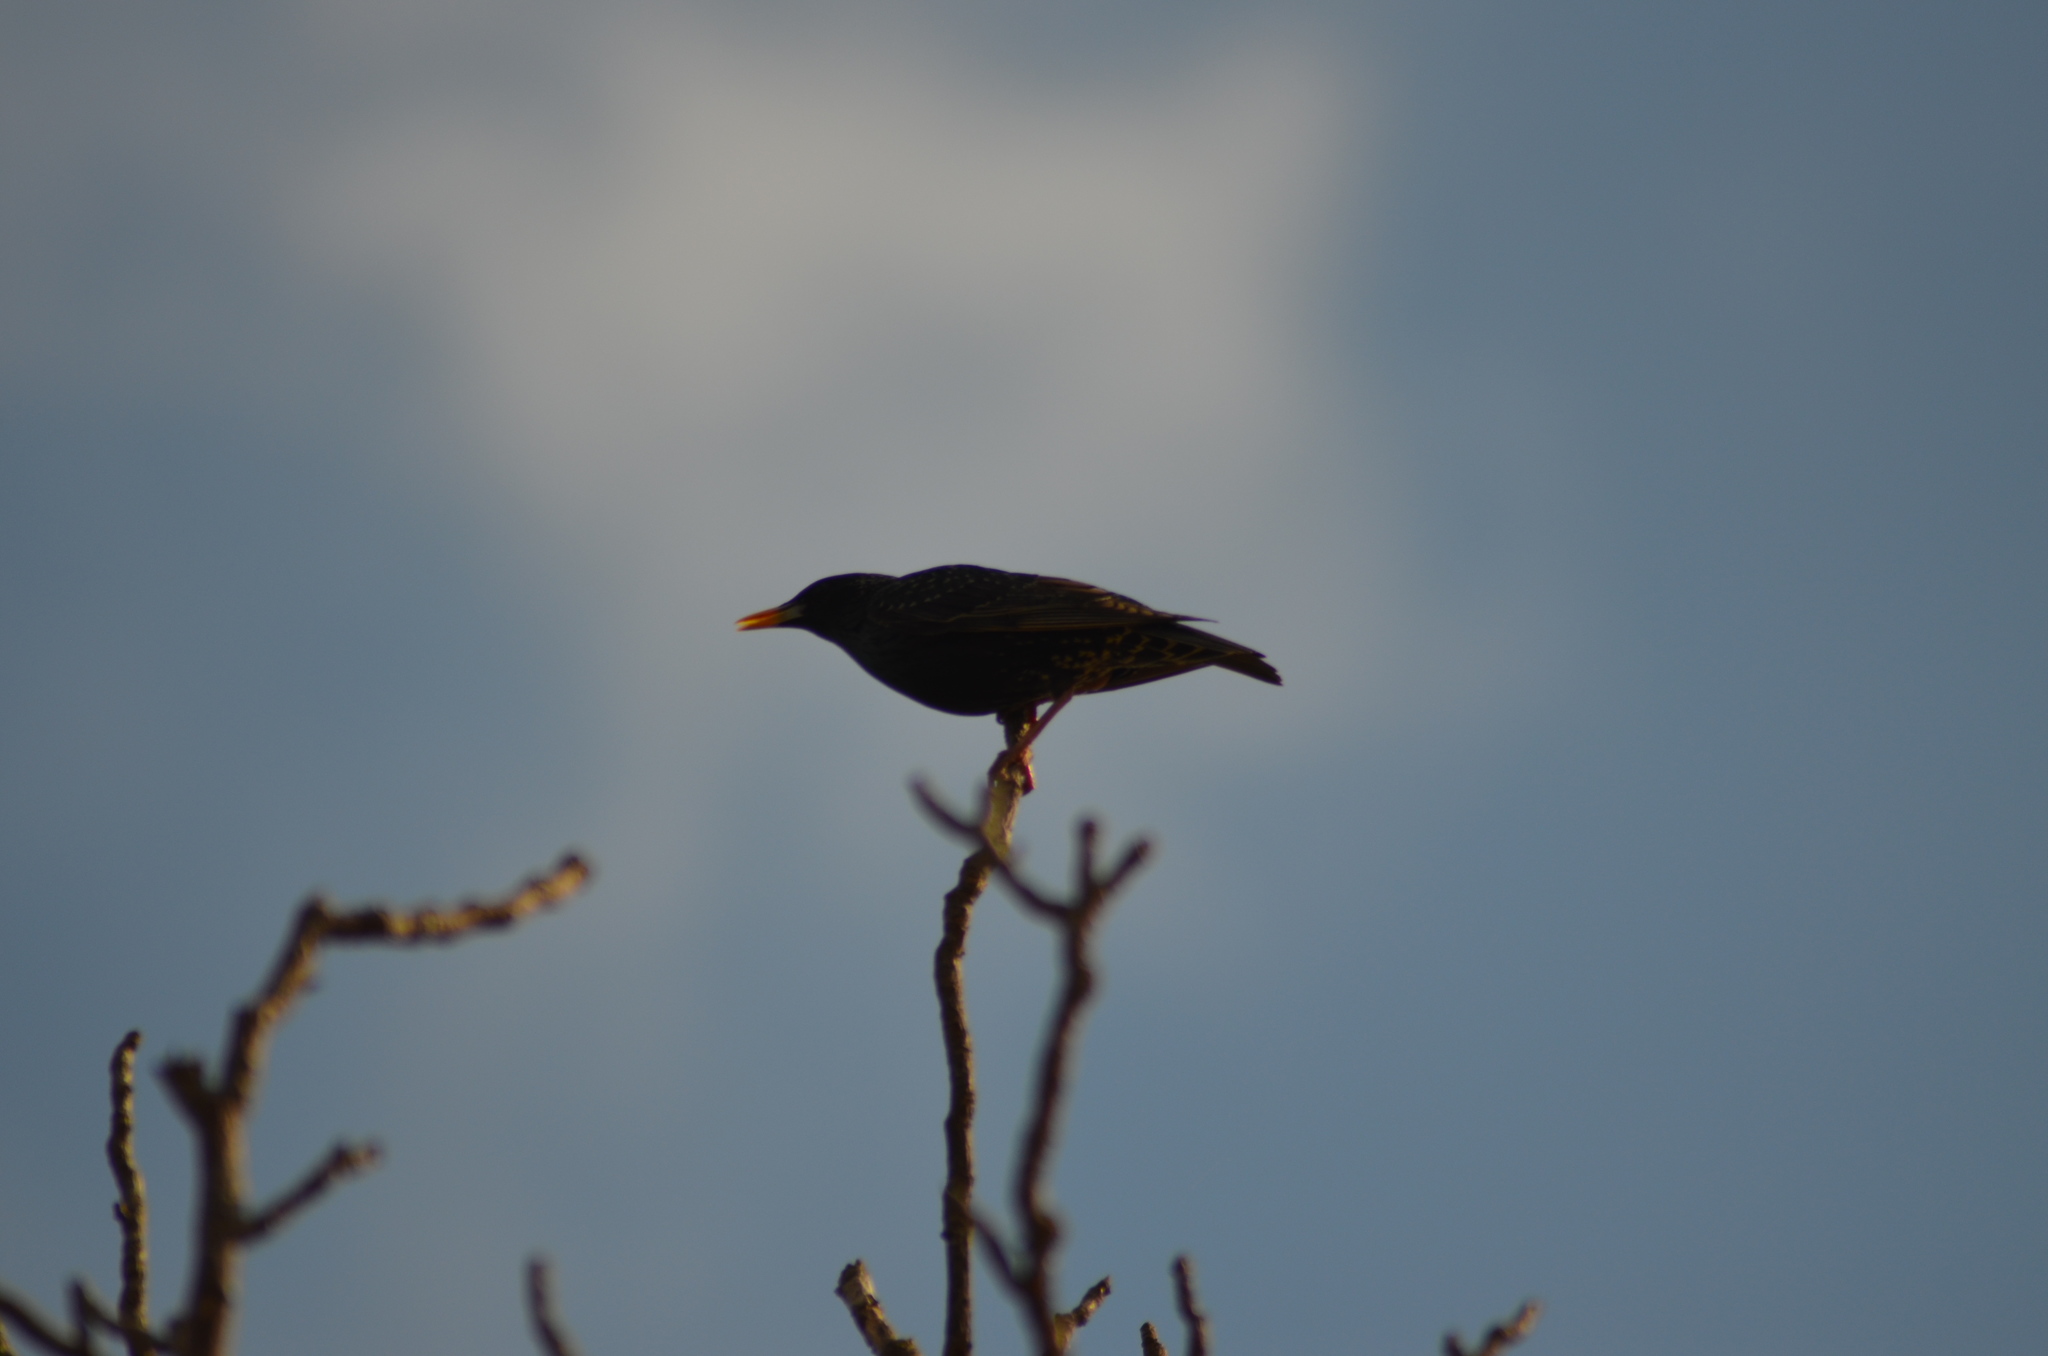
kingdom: Animalia
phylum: Chordata
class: Aves
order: Passeriformes
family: Sturnidae
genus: Sturnus
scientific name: Sturnus vulgaris
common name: Common starling
